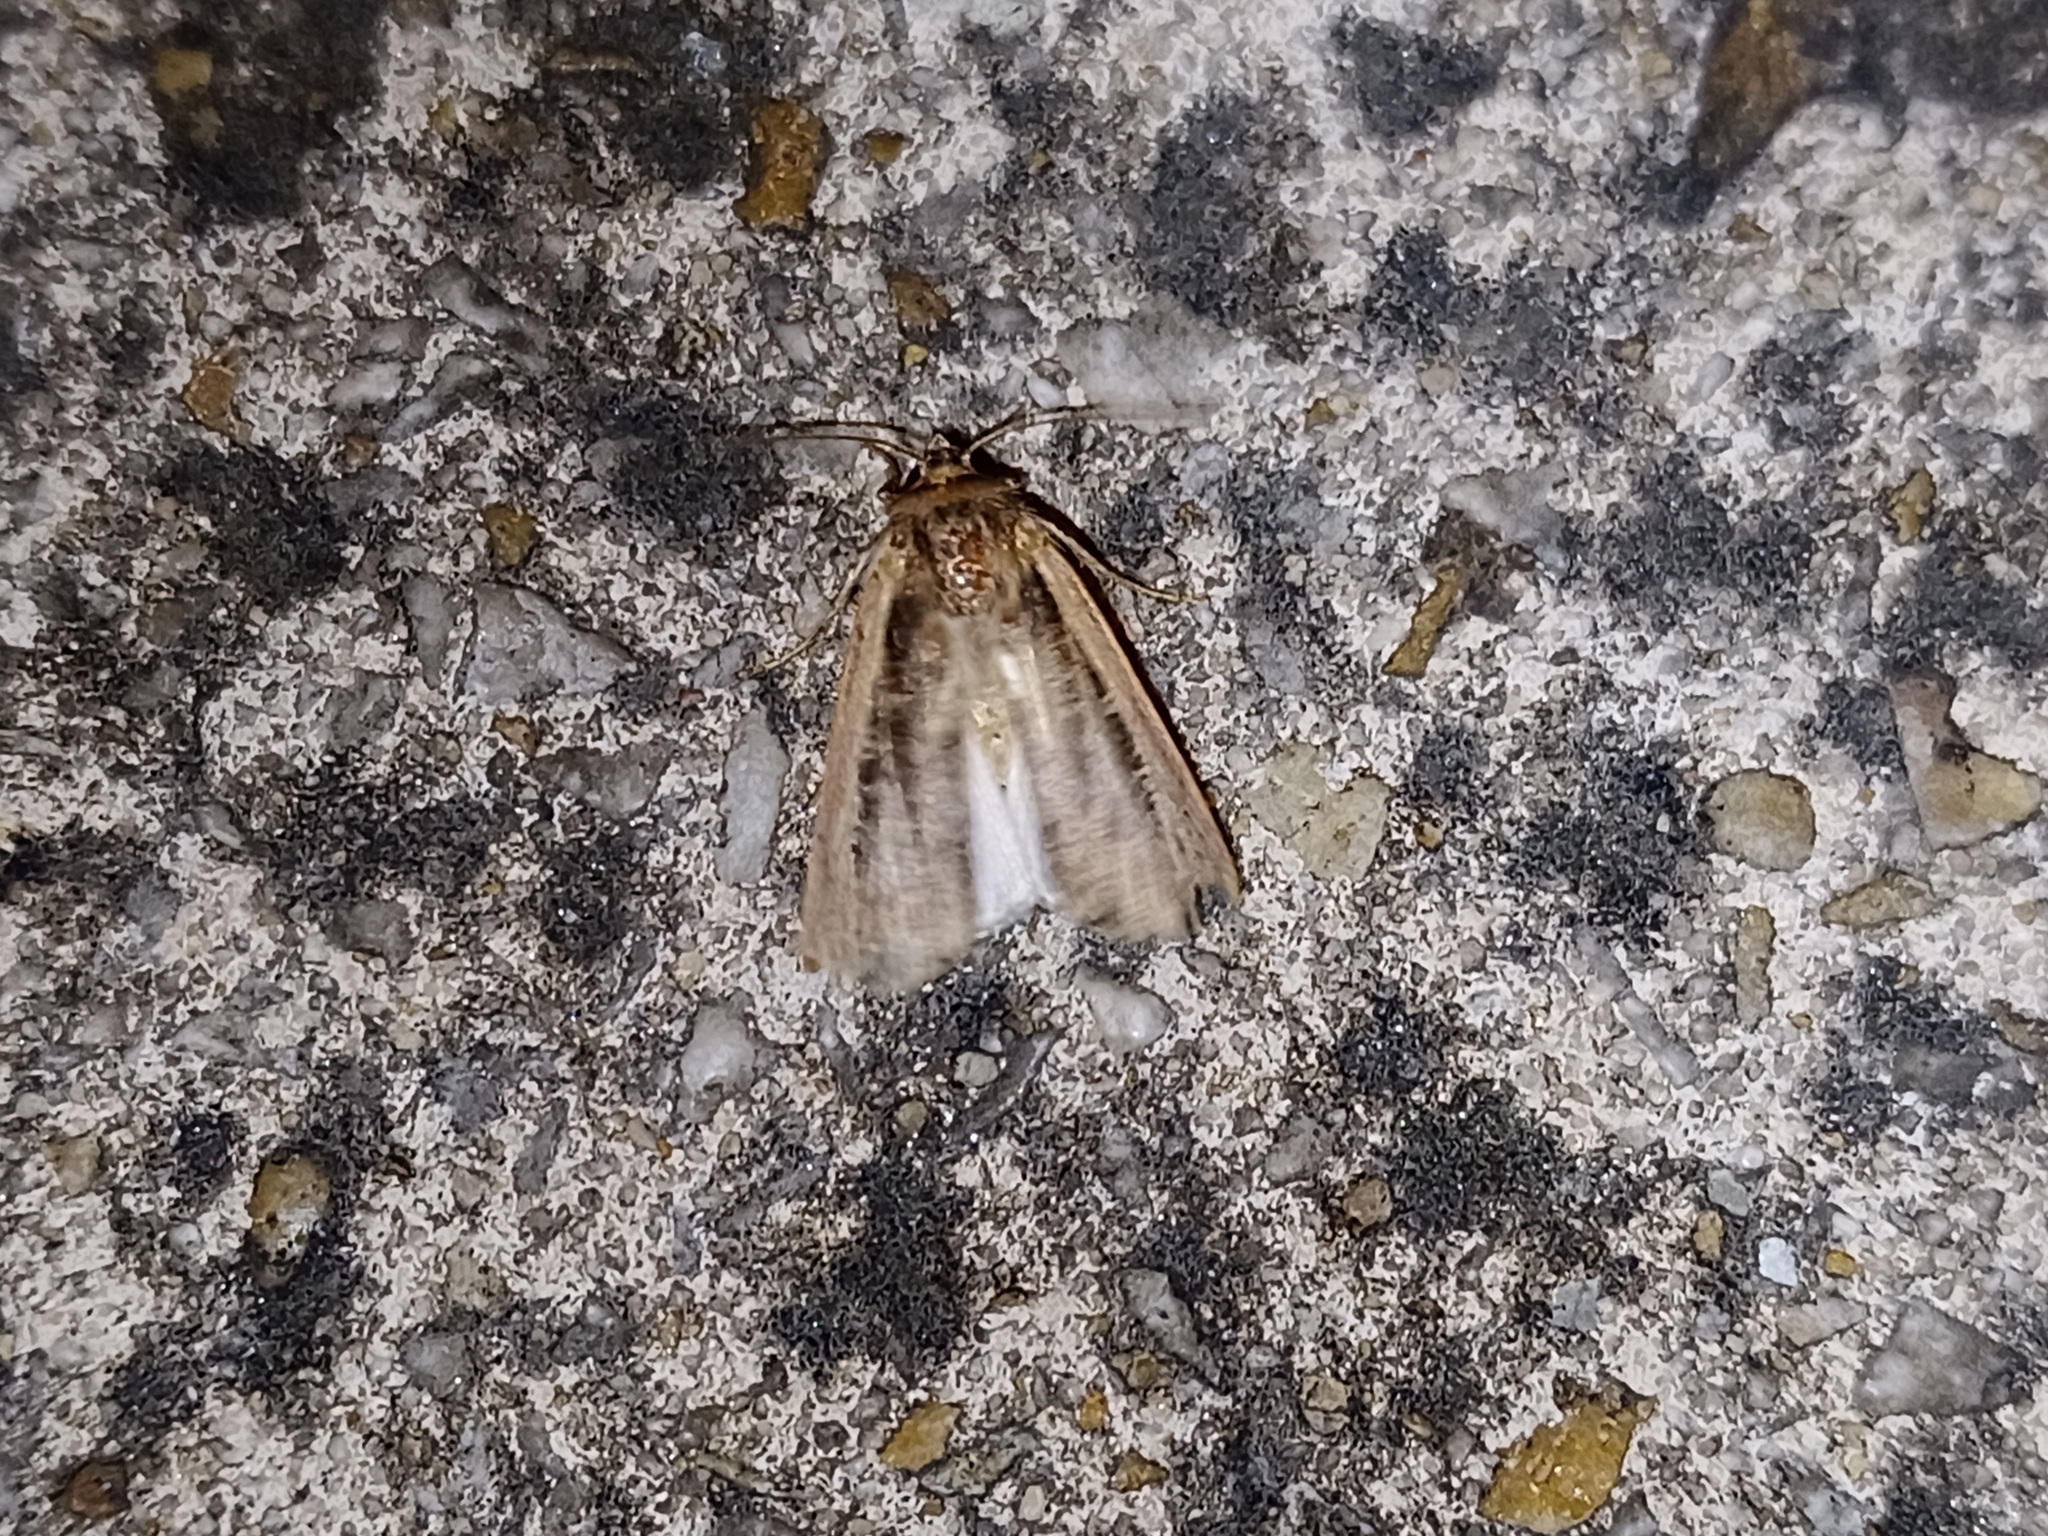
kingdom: Animalia
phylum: Arthropoda
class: Insecta
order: Lepidoptera
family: Noctuidae
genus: Ochropleura
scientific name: Ochropleura plecta
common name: Flame shoulder
